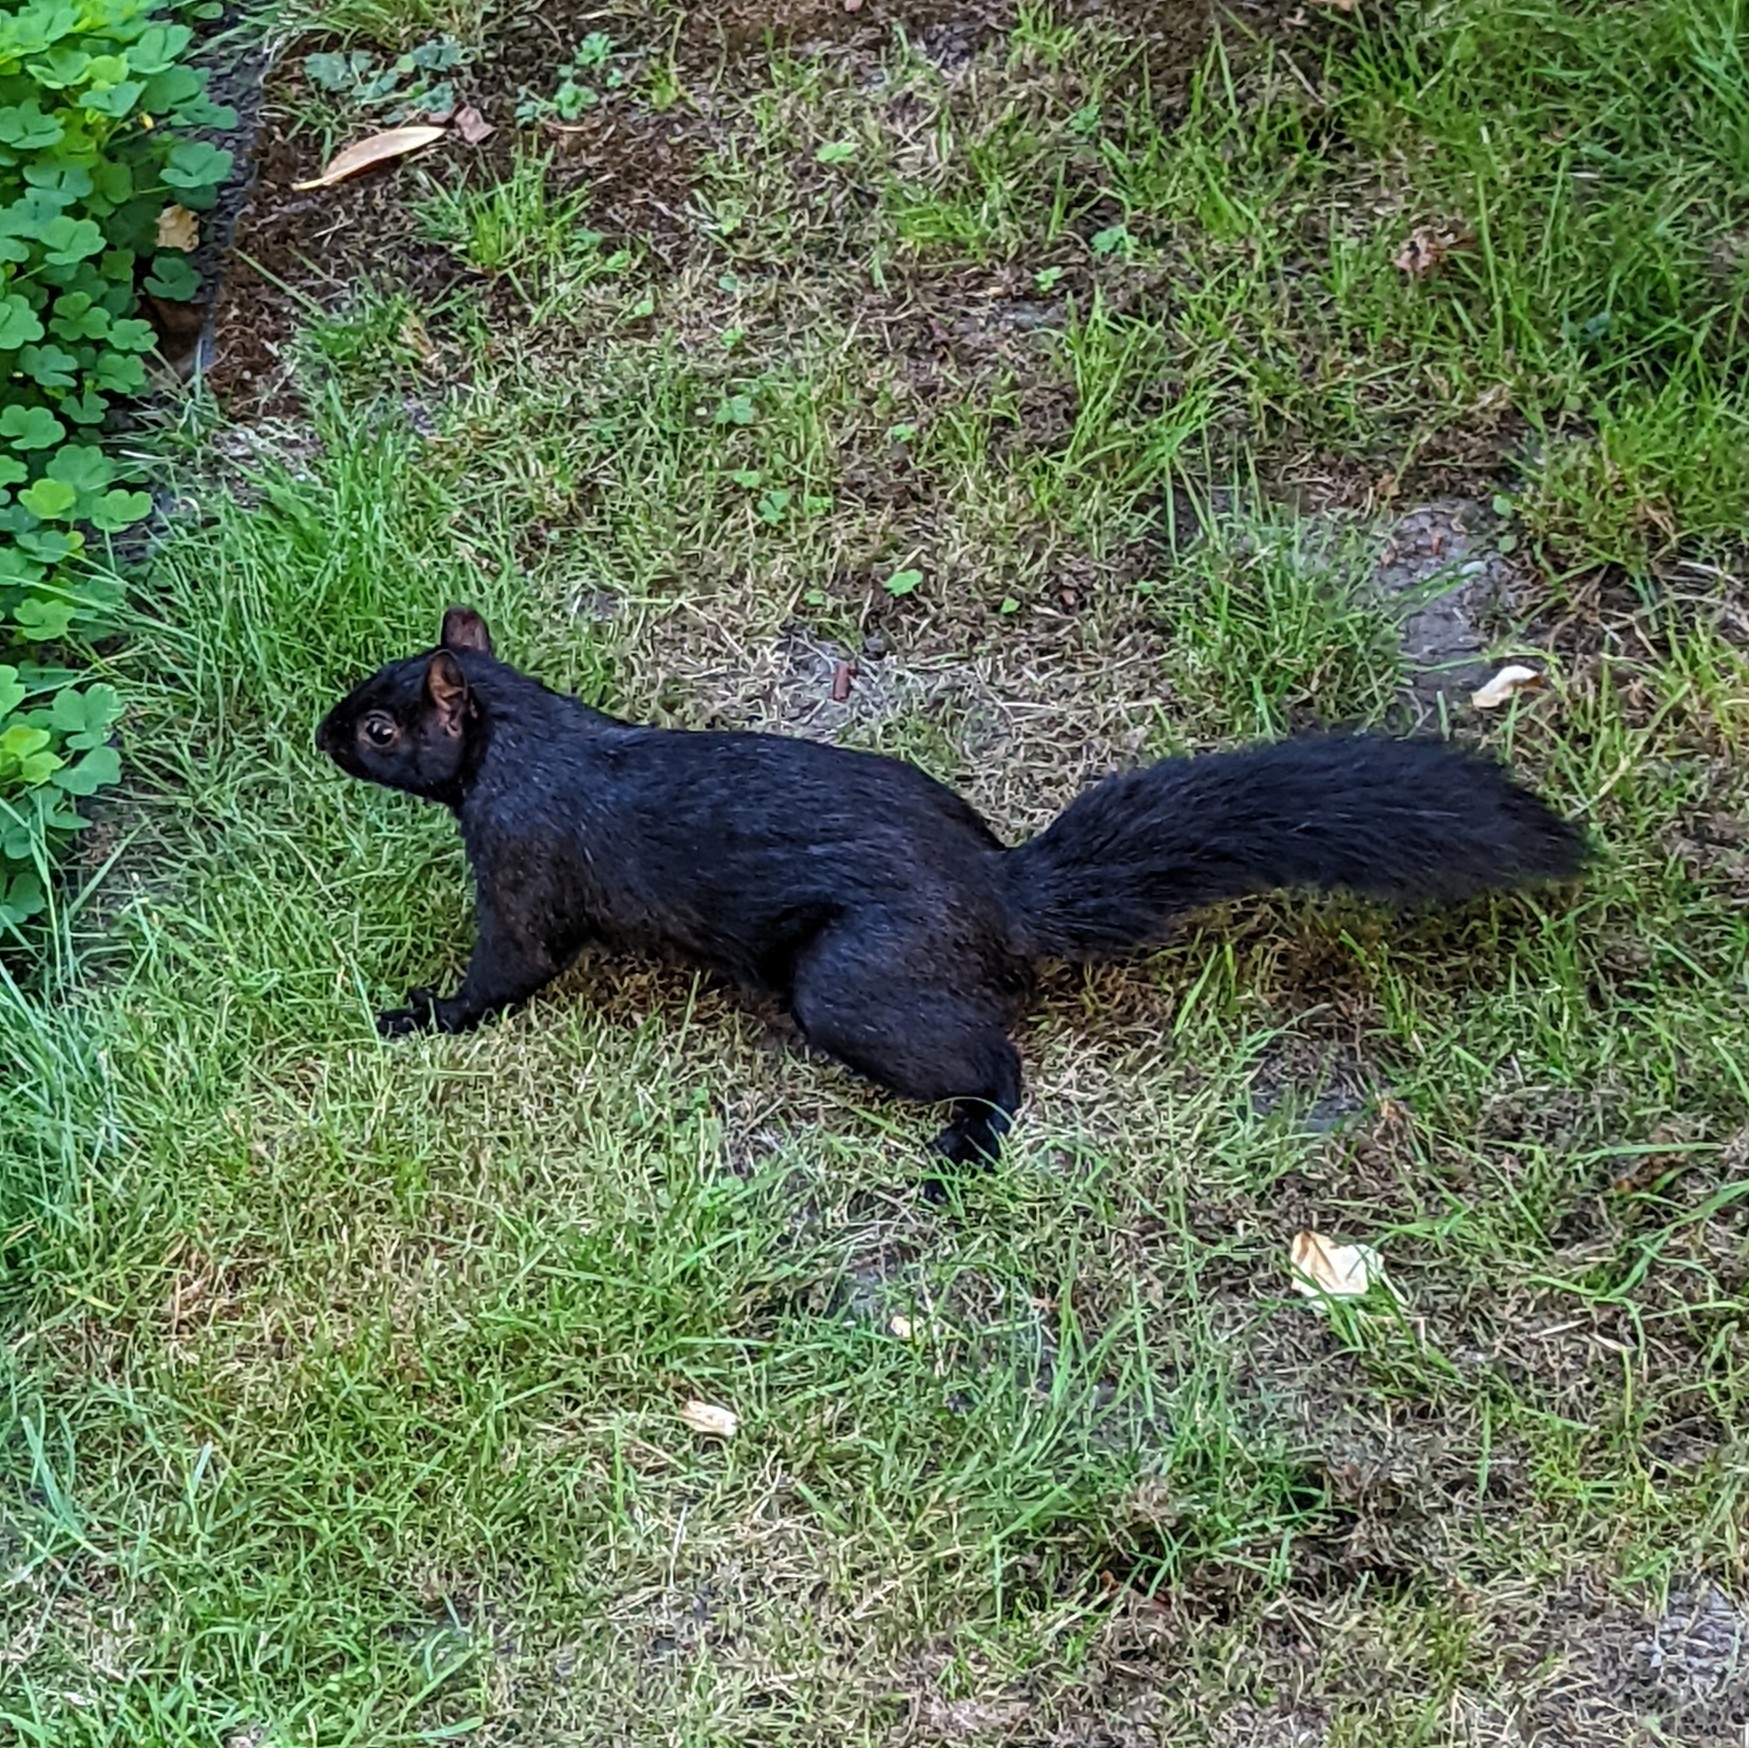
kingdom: Animalia
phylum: Chordata
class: Mammalia
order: Rodentia
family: Sciuridae
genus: Sciurus
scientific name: Sciurus carolinensis
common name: Eastern gray squirrel
